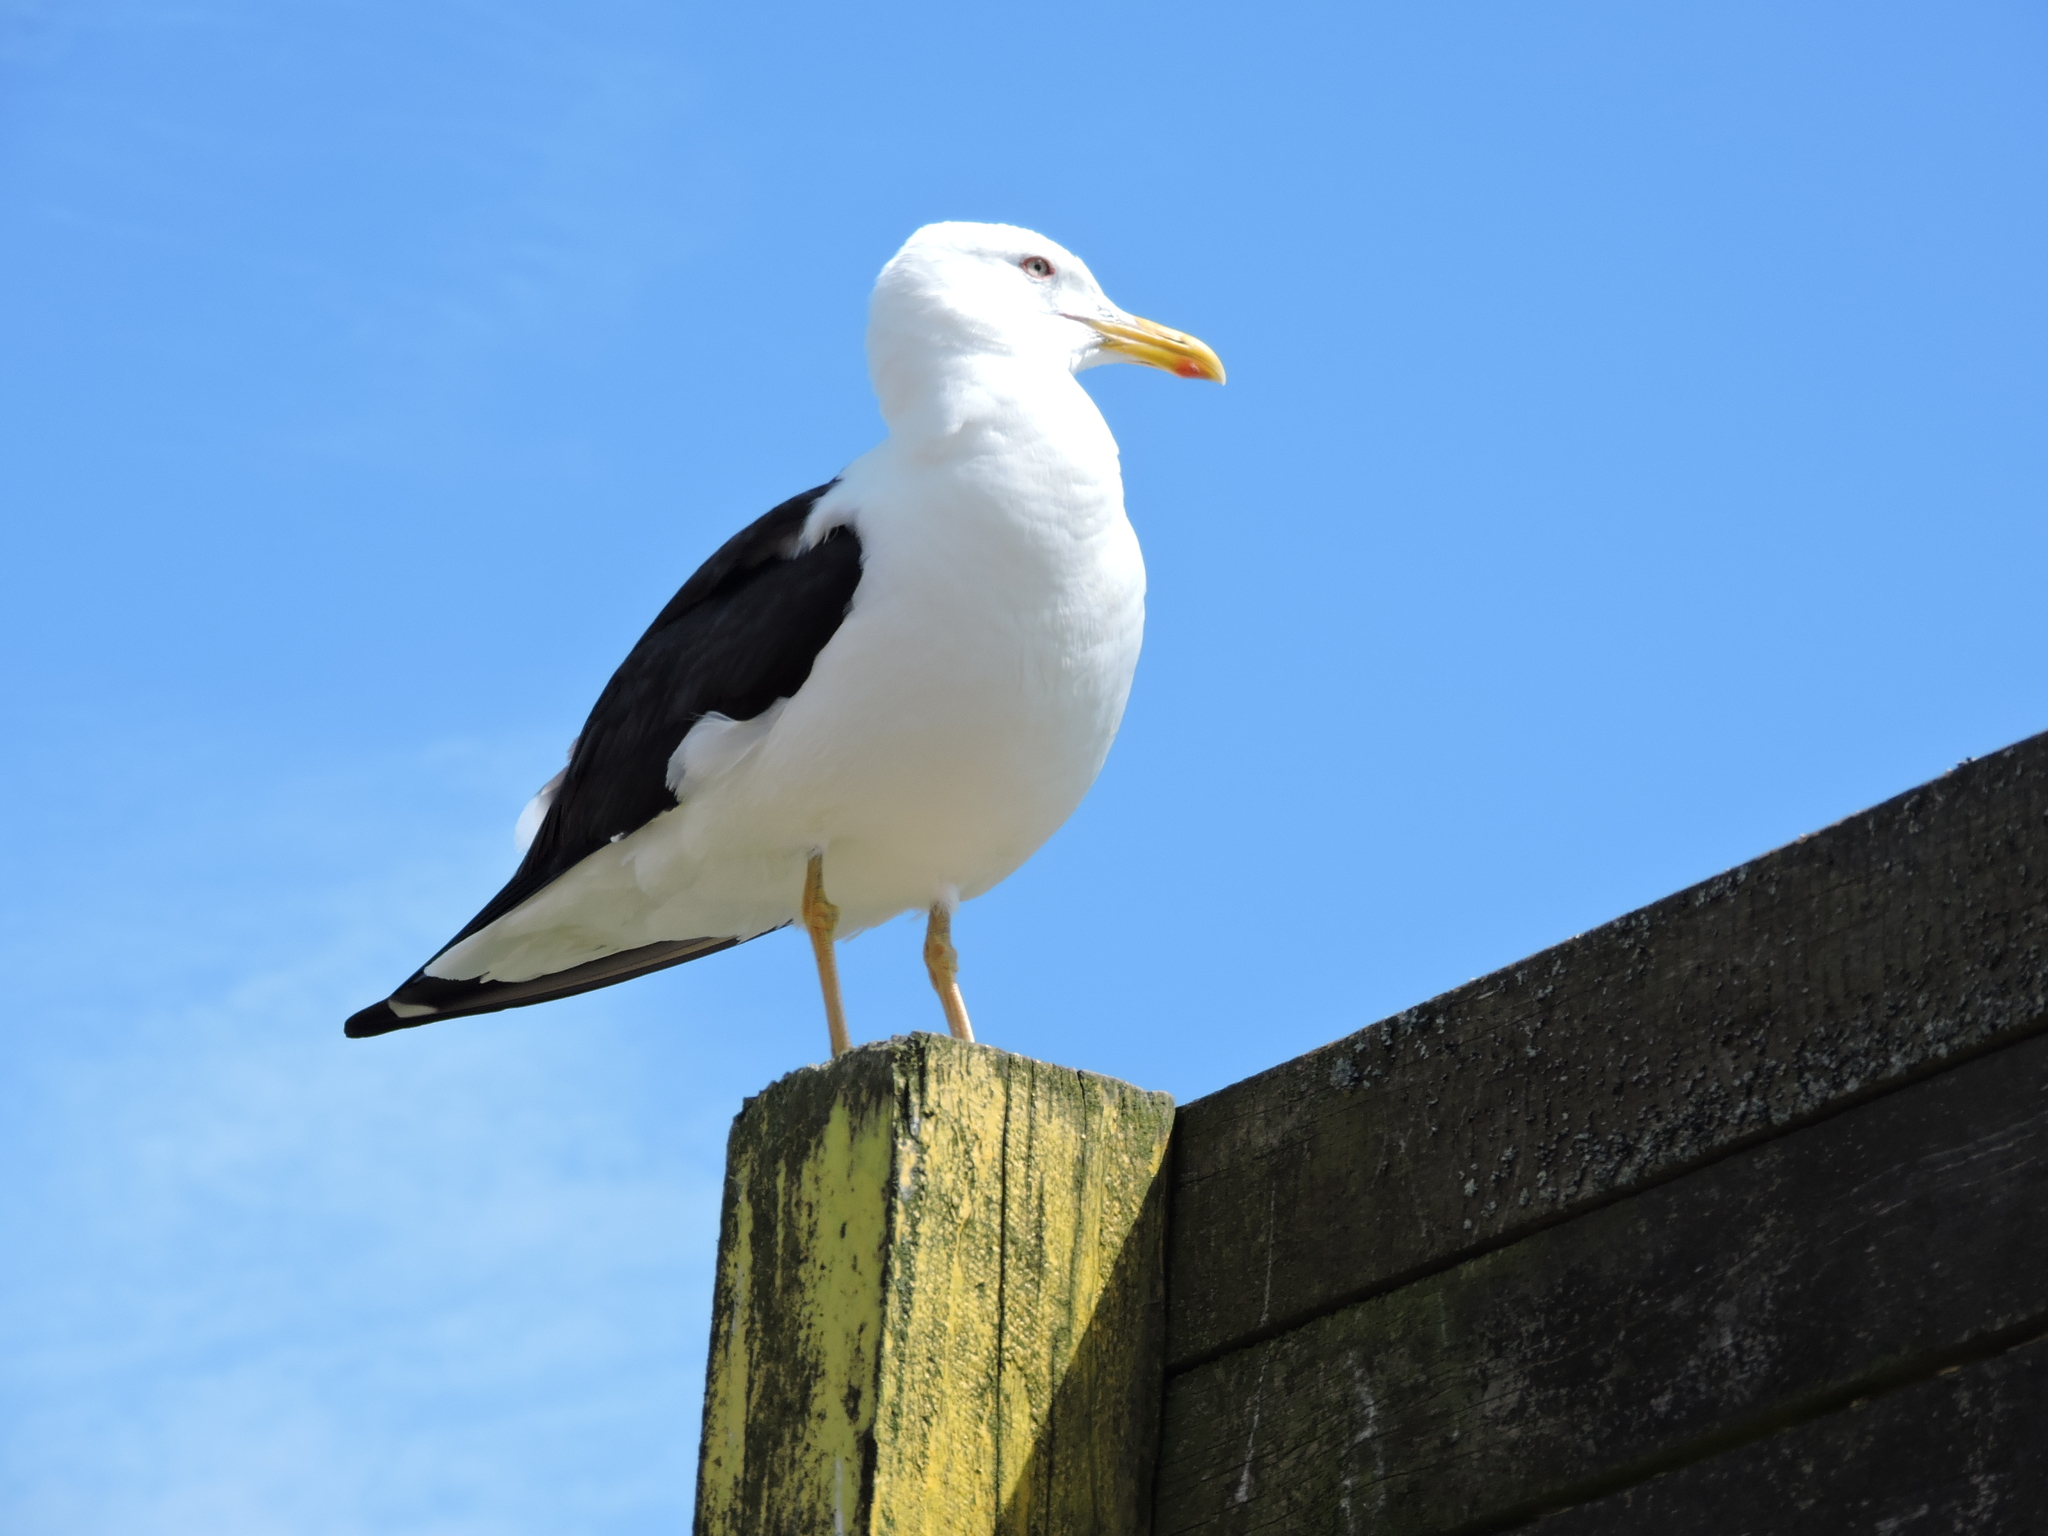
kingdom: Animalia
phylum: Chordata
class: Aves
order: Charadriiformes
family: Laridae
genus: Larus
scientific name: Larus fuscus
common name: Lesser black-backed gull
